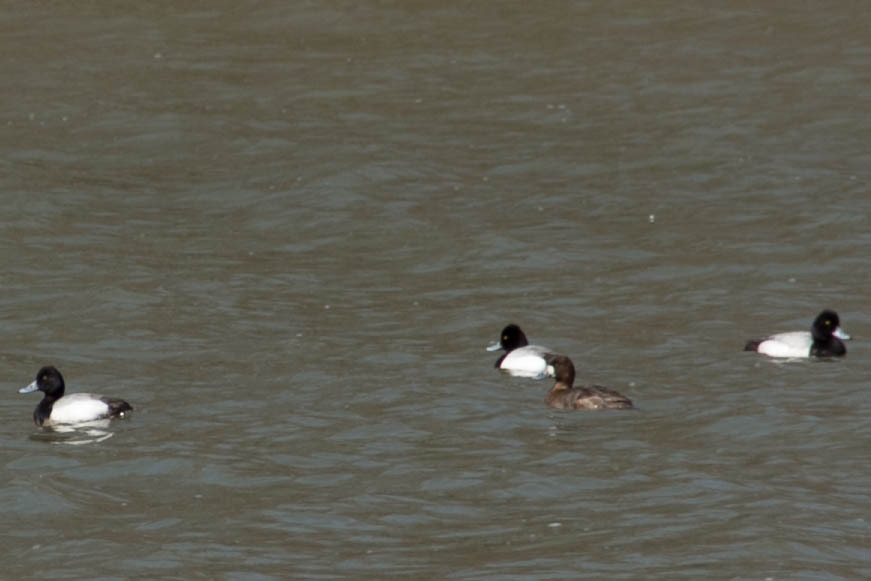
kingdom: Animalia
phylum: Chordata
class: Aves
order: Anseriformes
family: Anatidae
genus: Aythya
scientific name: Aythya affinis
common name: Lesser scaup
